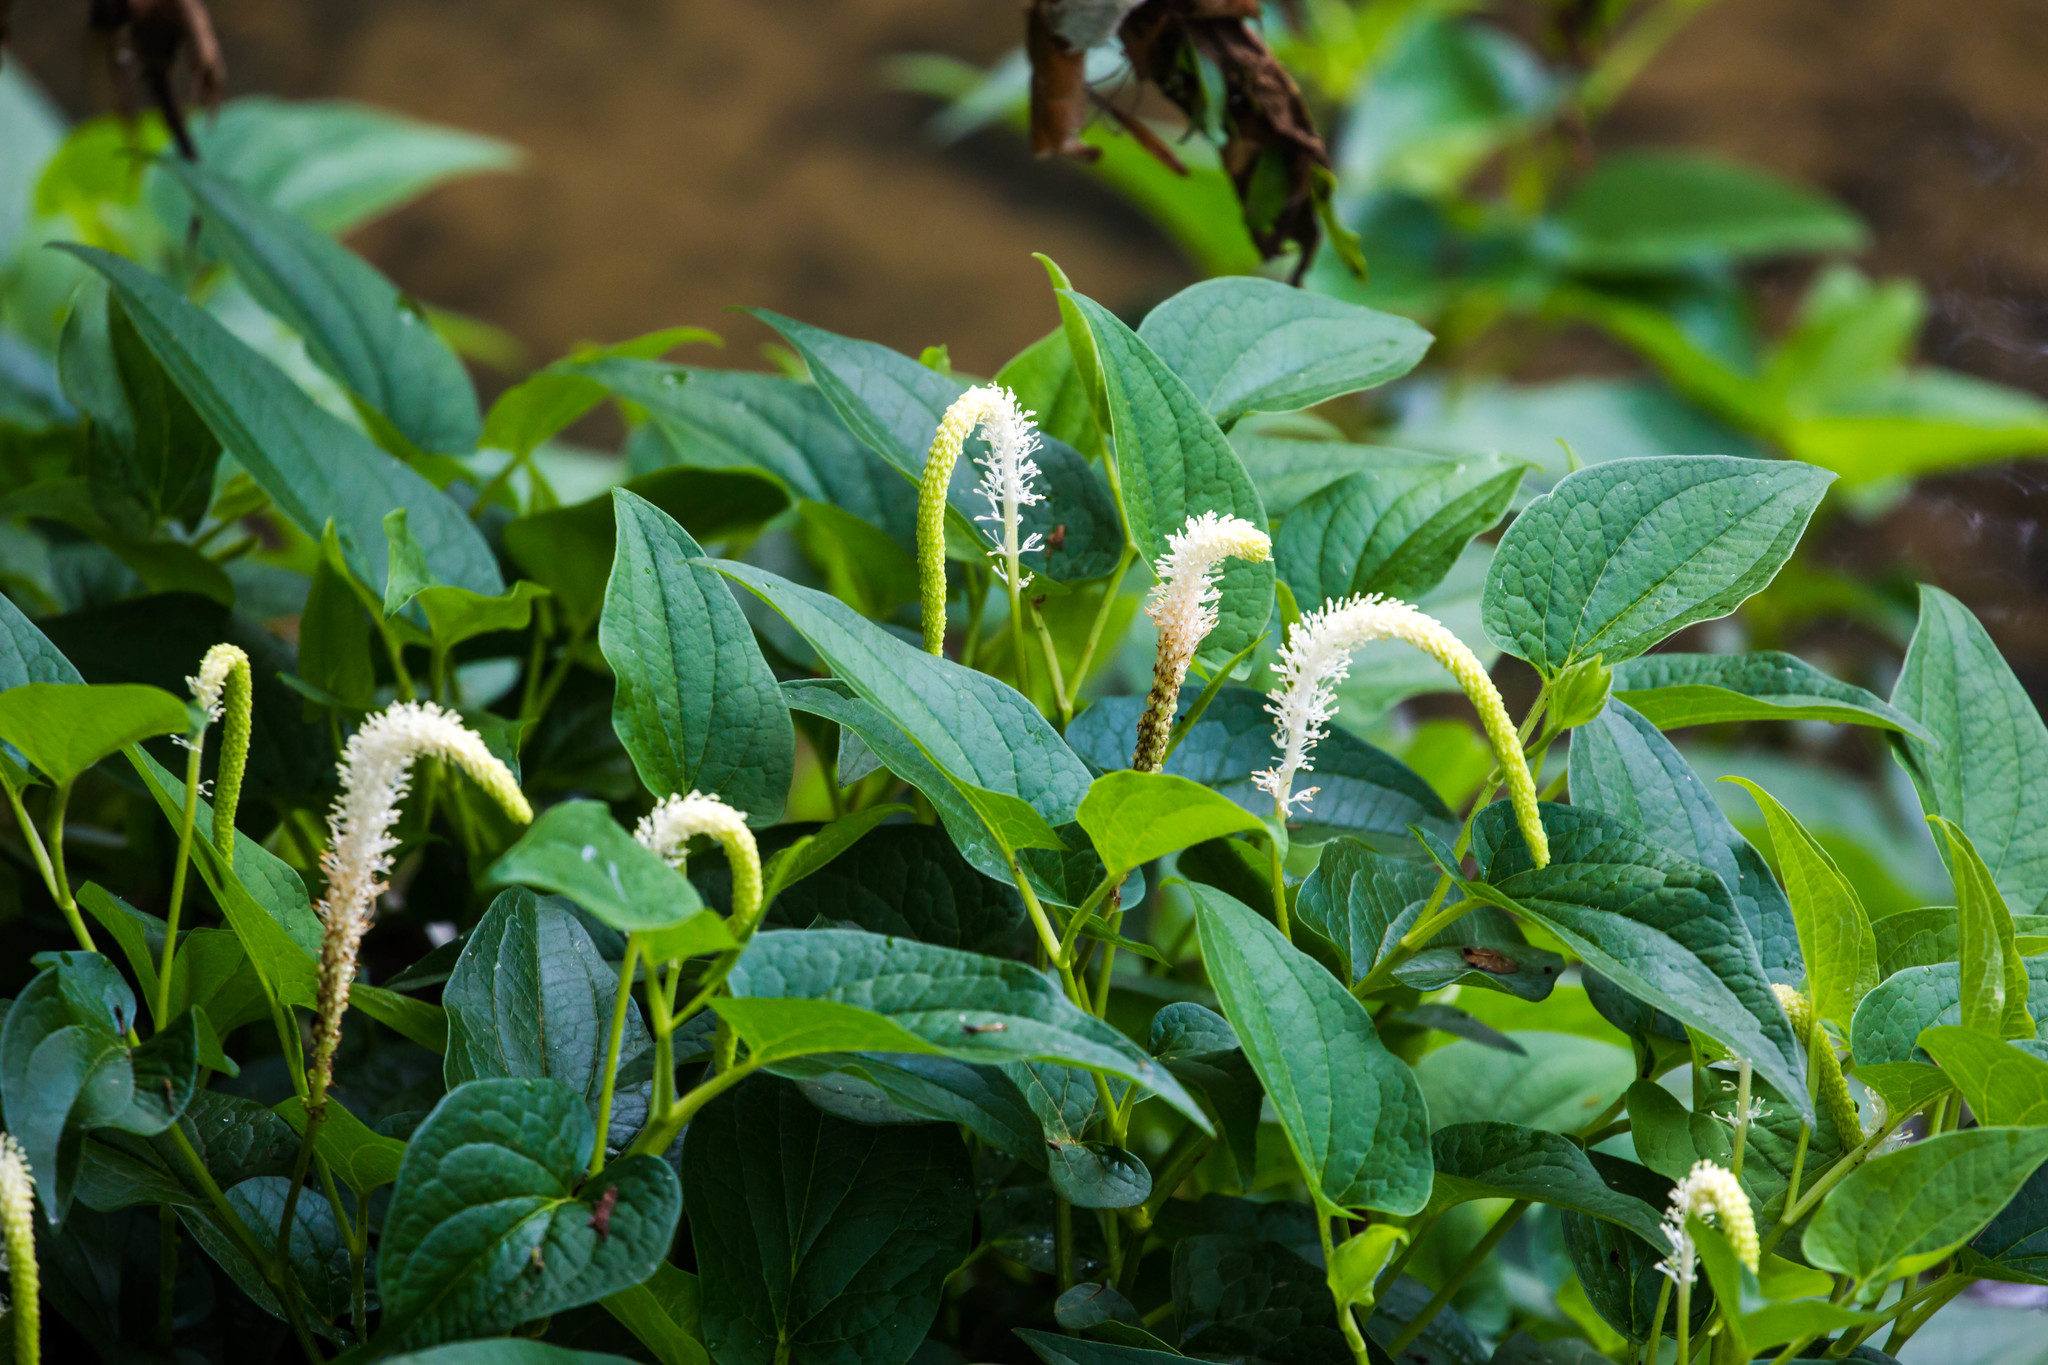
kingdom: Plantae
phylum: Tracheophyta
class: Magnoliopsida
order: Piperales
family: Saururaceae
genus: Saururus
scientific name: Saururus cernuus
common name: Lizard's-tail
